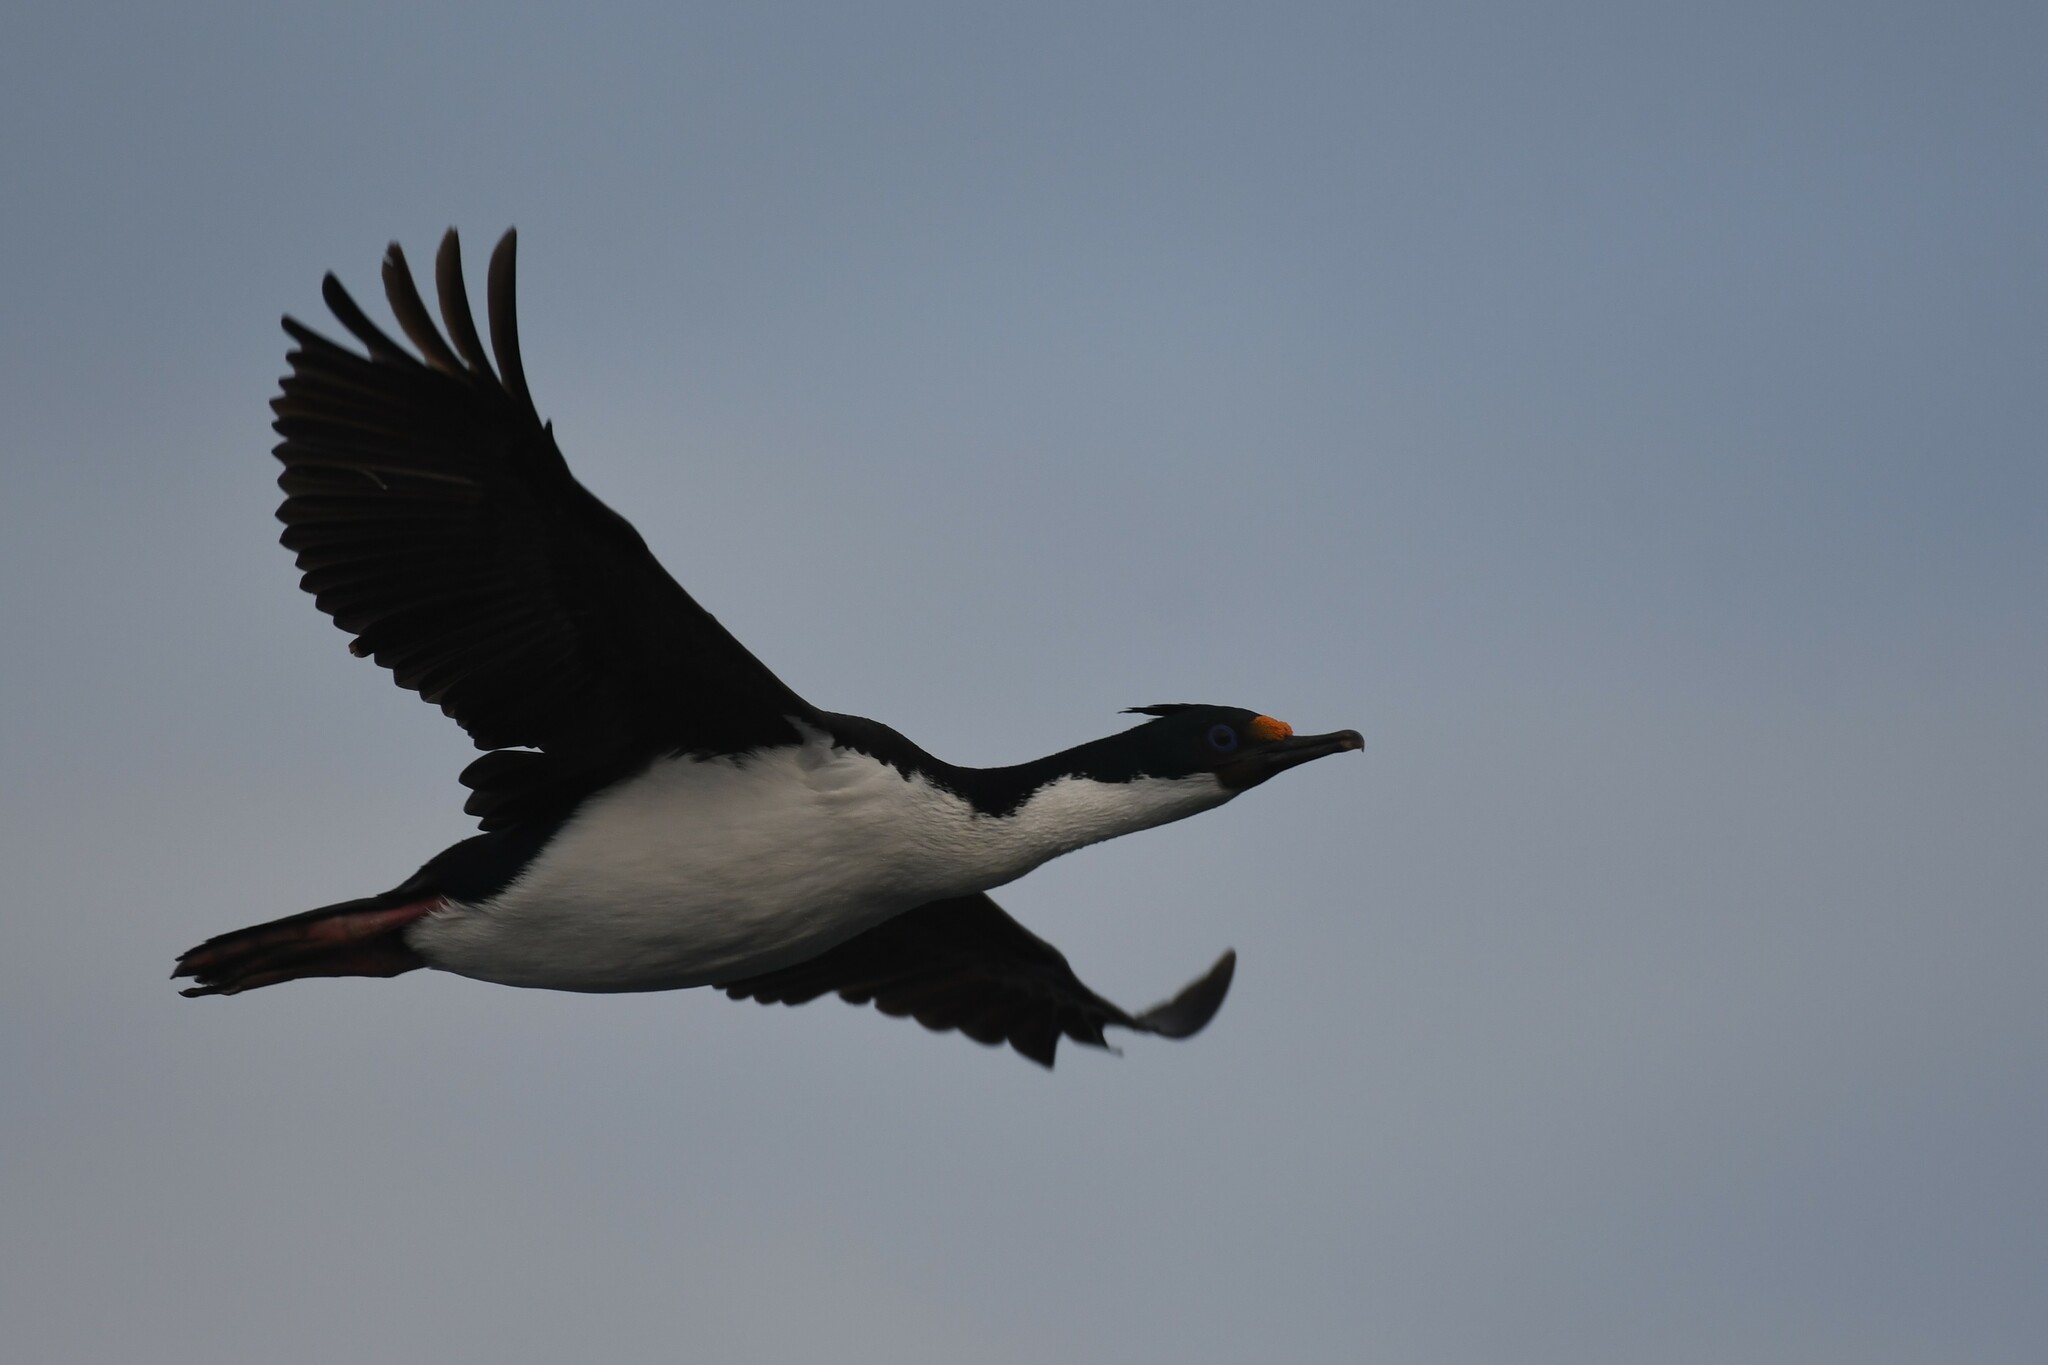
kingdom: Animalia
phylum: Chordata
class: Aves
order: Suliformes
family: Phalacrocoracidae
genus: Leucocarbo
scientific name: Leucocarbo atriceps
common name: Imperial shag
